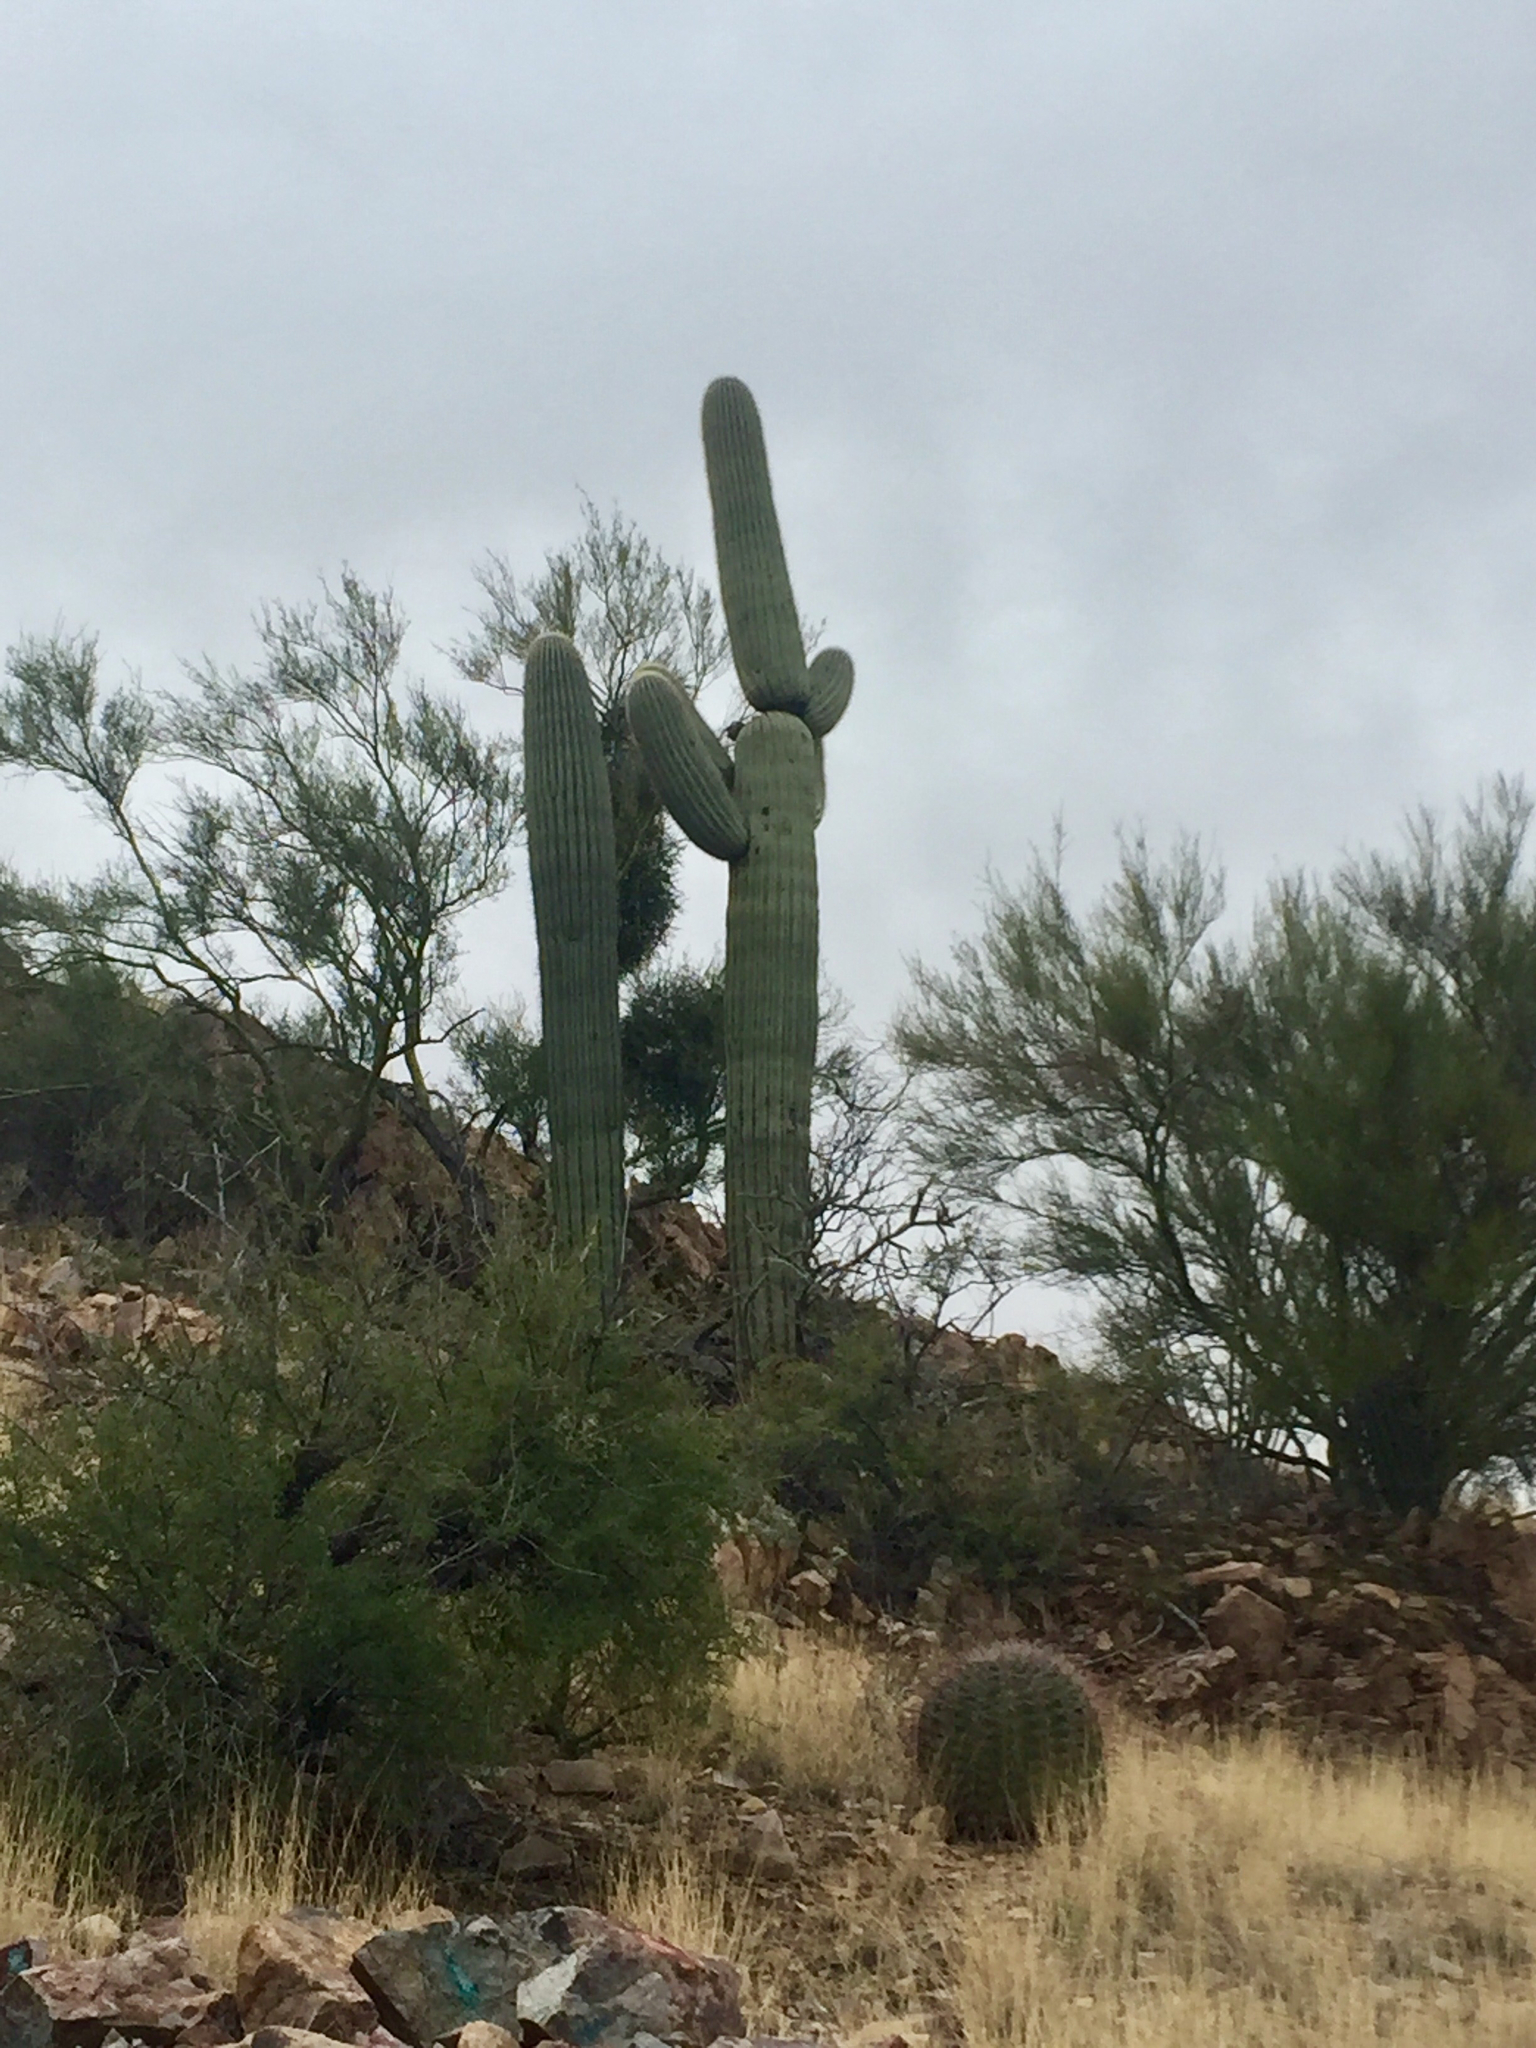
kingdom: Plantae
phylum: Tracheophyta
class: Magnoliopsida
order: Caryophyllales
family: Cactaceae
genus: Carnegiea
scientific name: Carnegiea gigantea
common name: Saguaro
